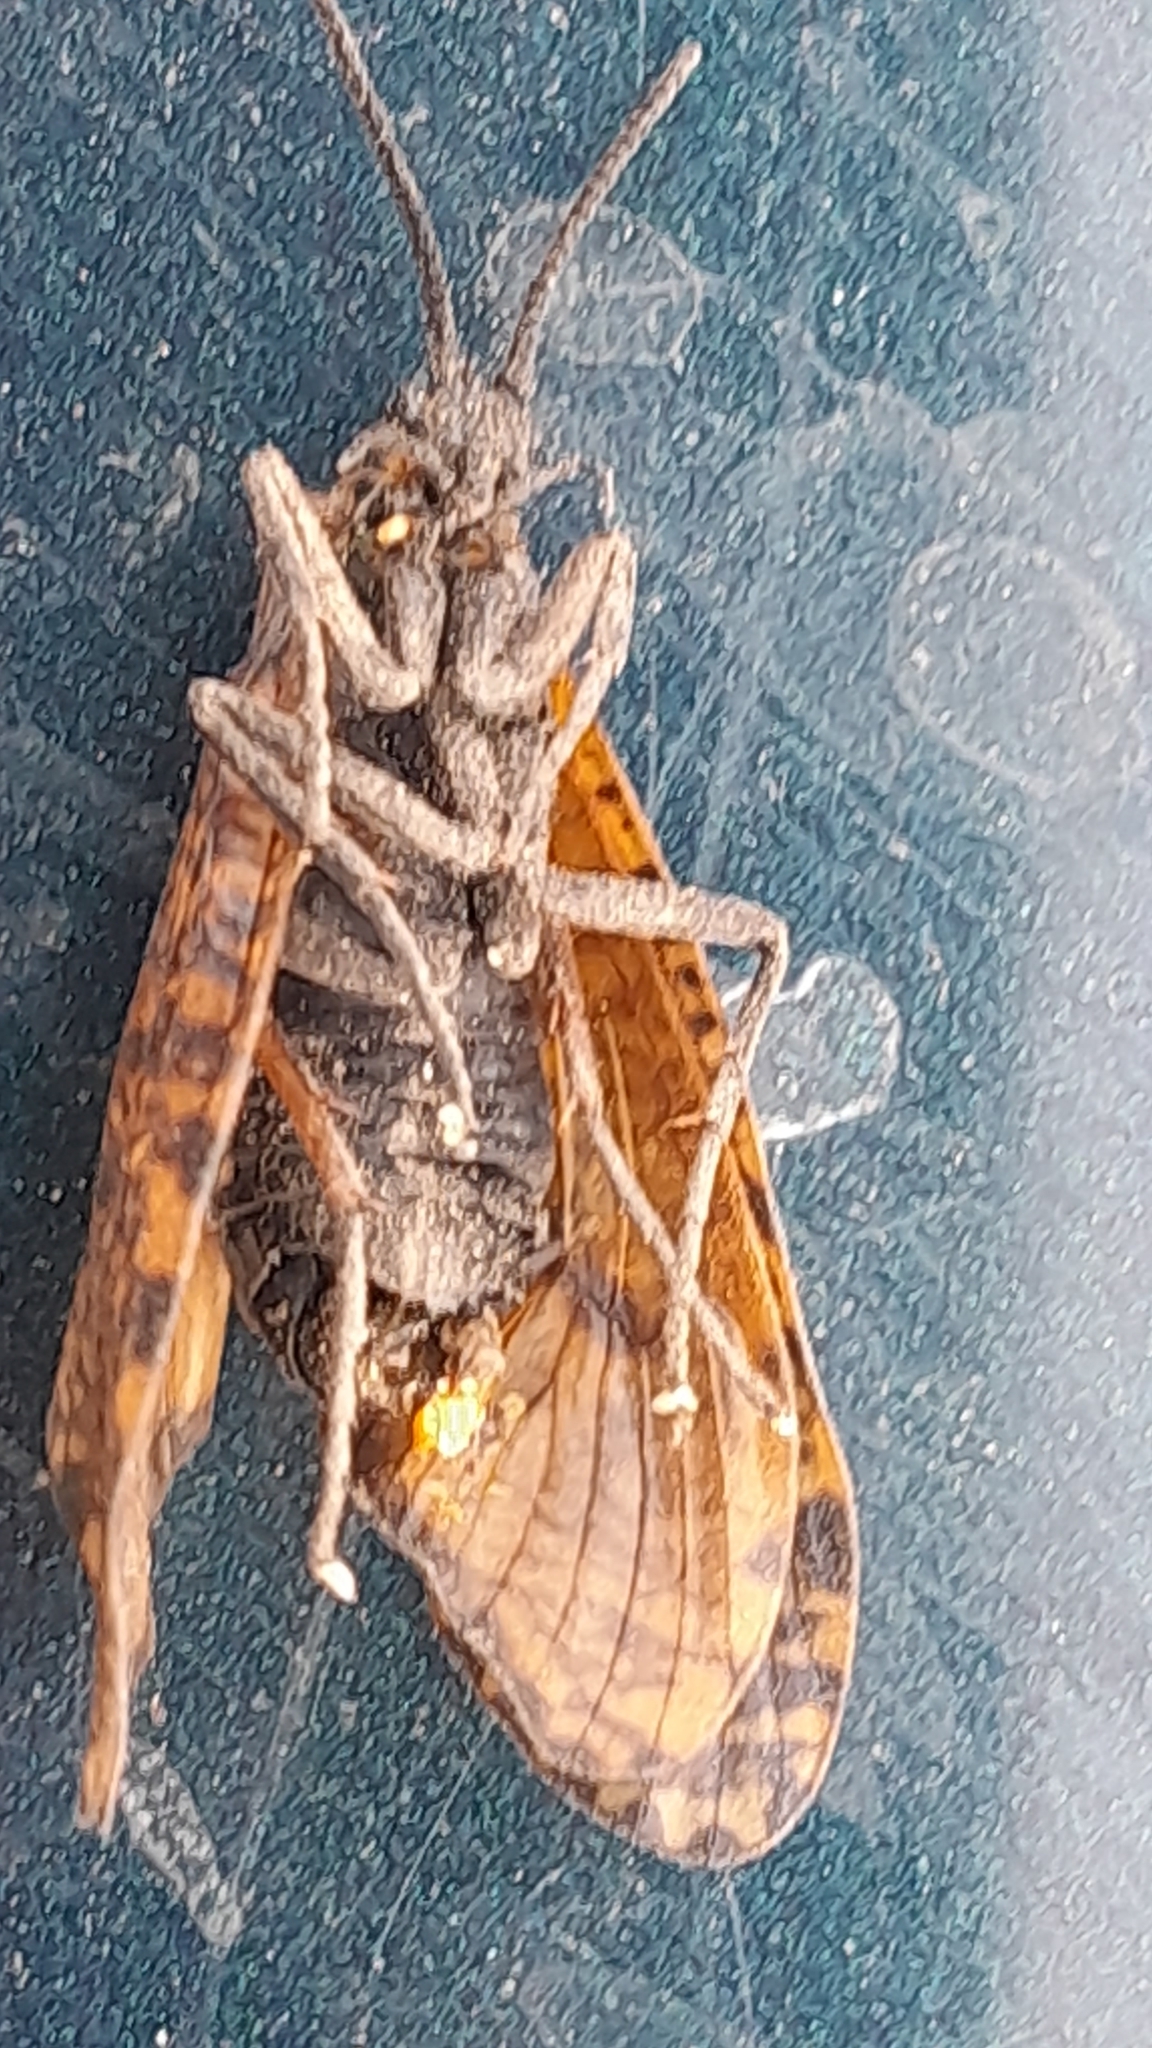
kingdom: Animalia
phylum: Arthropoda
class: Insecta
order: Trichoptera
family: Phryganeidae
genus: Oligostomis
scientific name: Oligostomis reticulata
